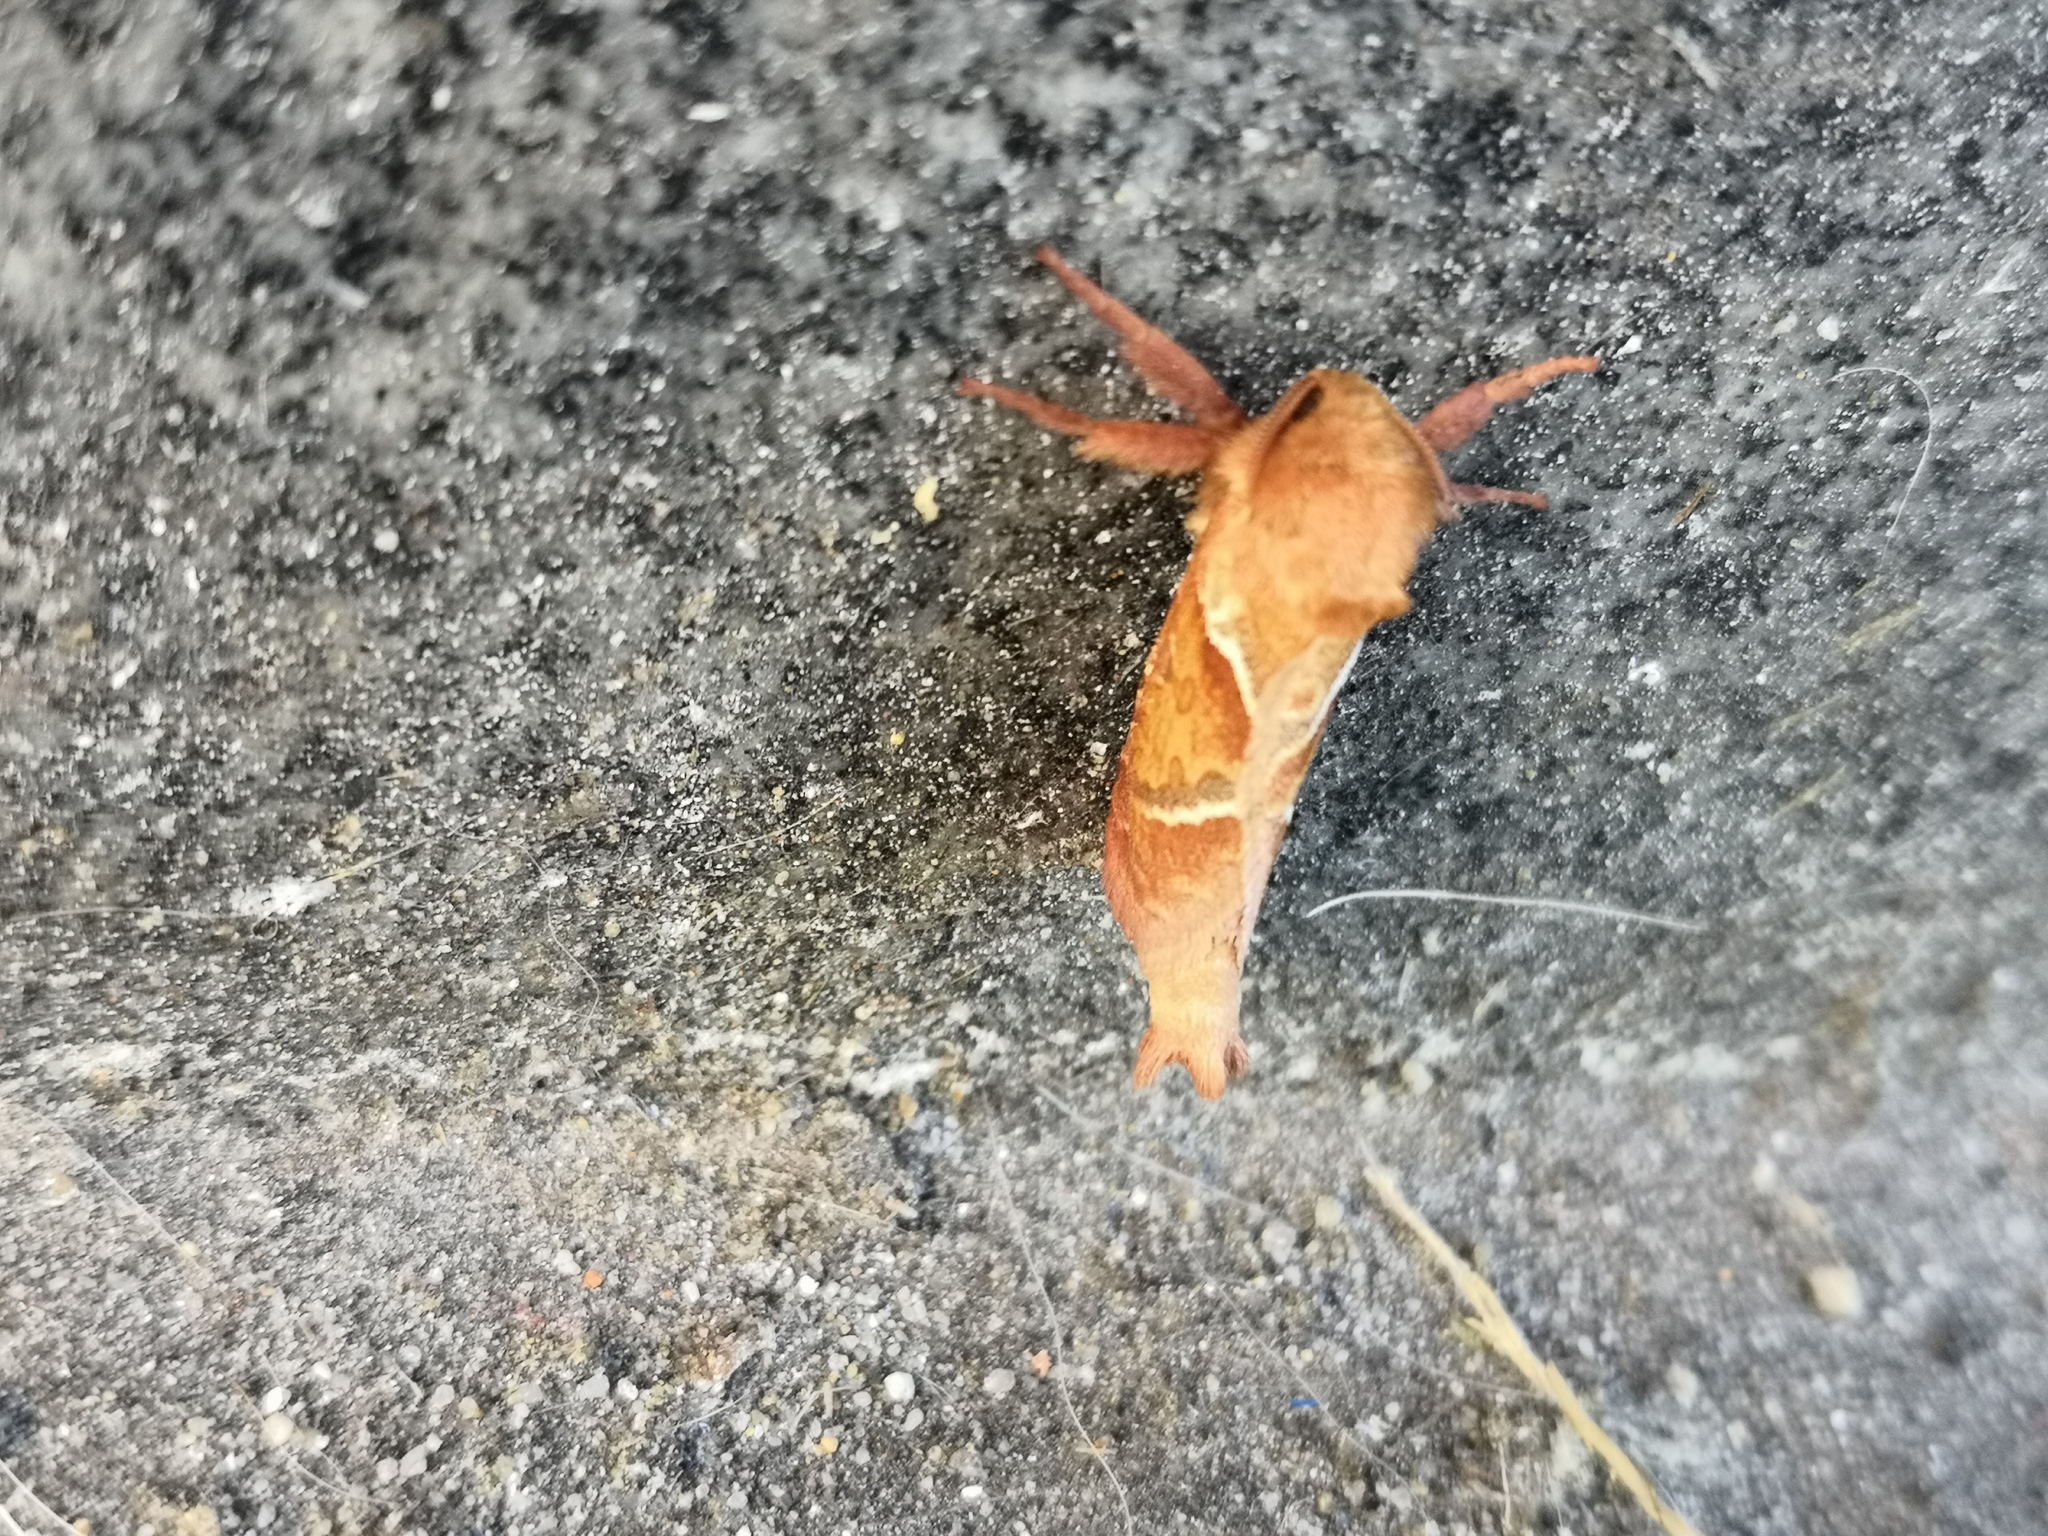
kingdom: Animalia
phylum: Arthropoda
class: Insecta
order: Lepidoptera
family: Hepialidae
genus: Triodia
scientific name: Triodia sylvina
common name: Orange swift
